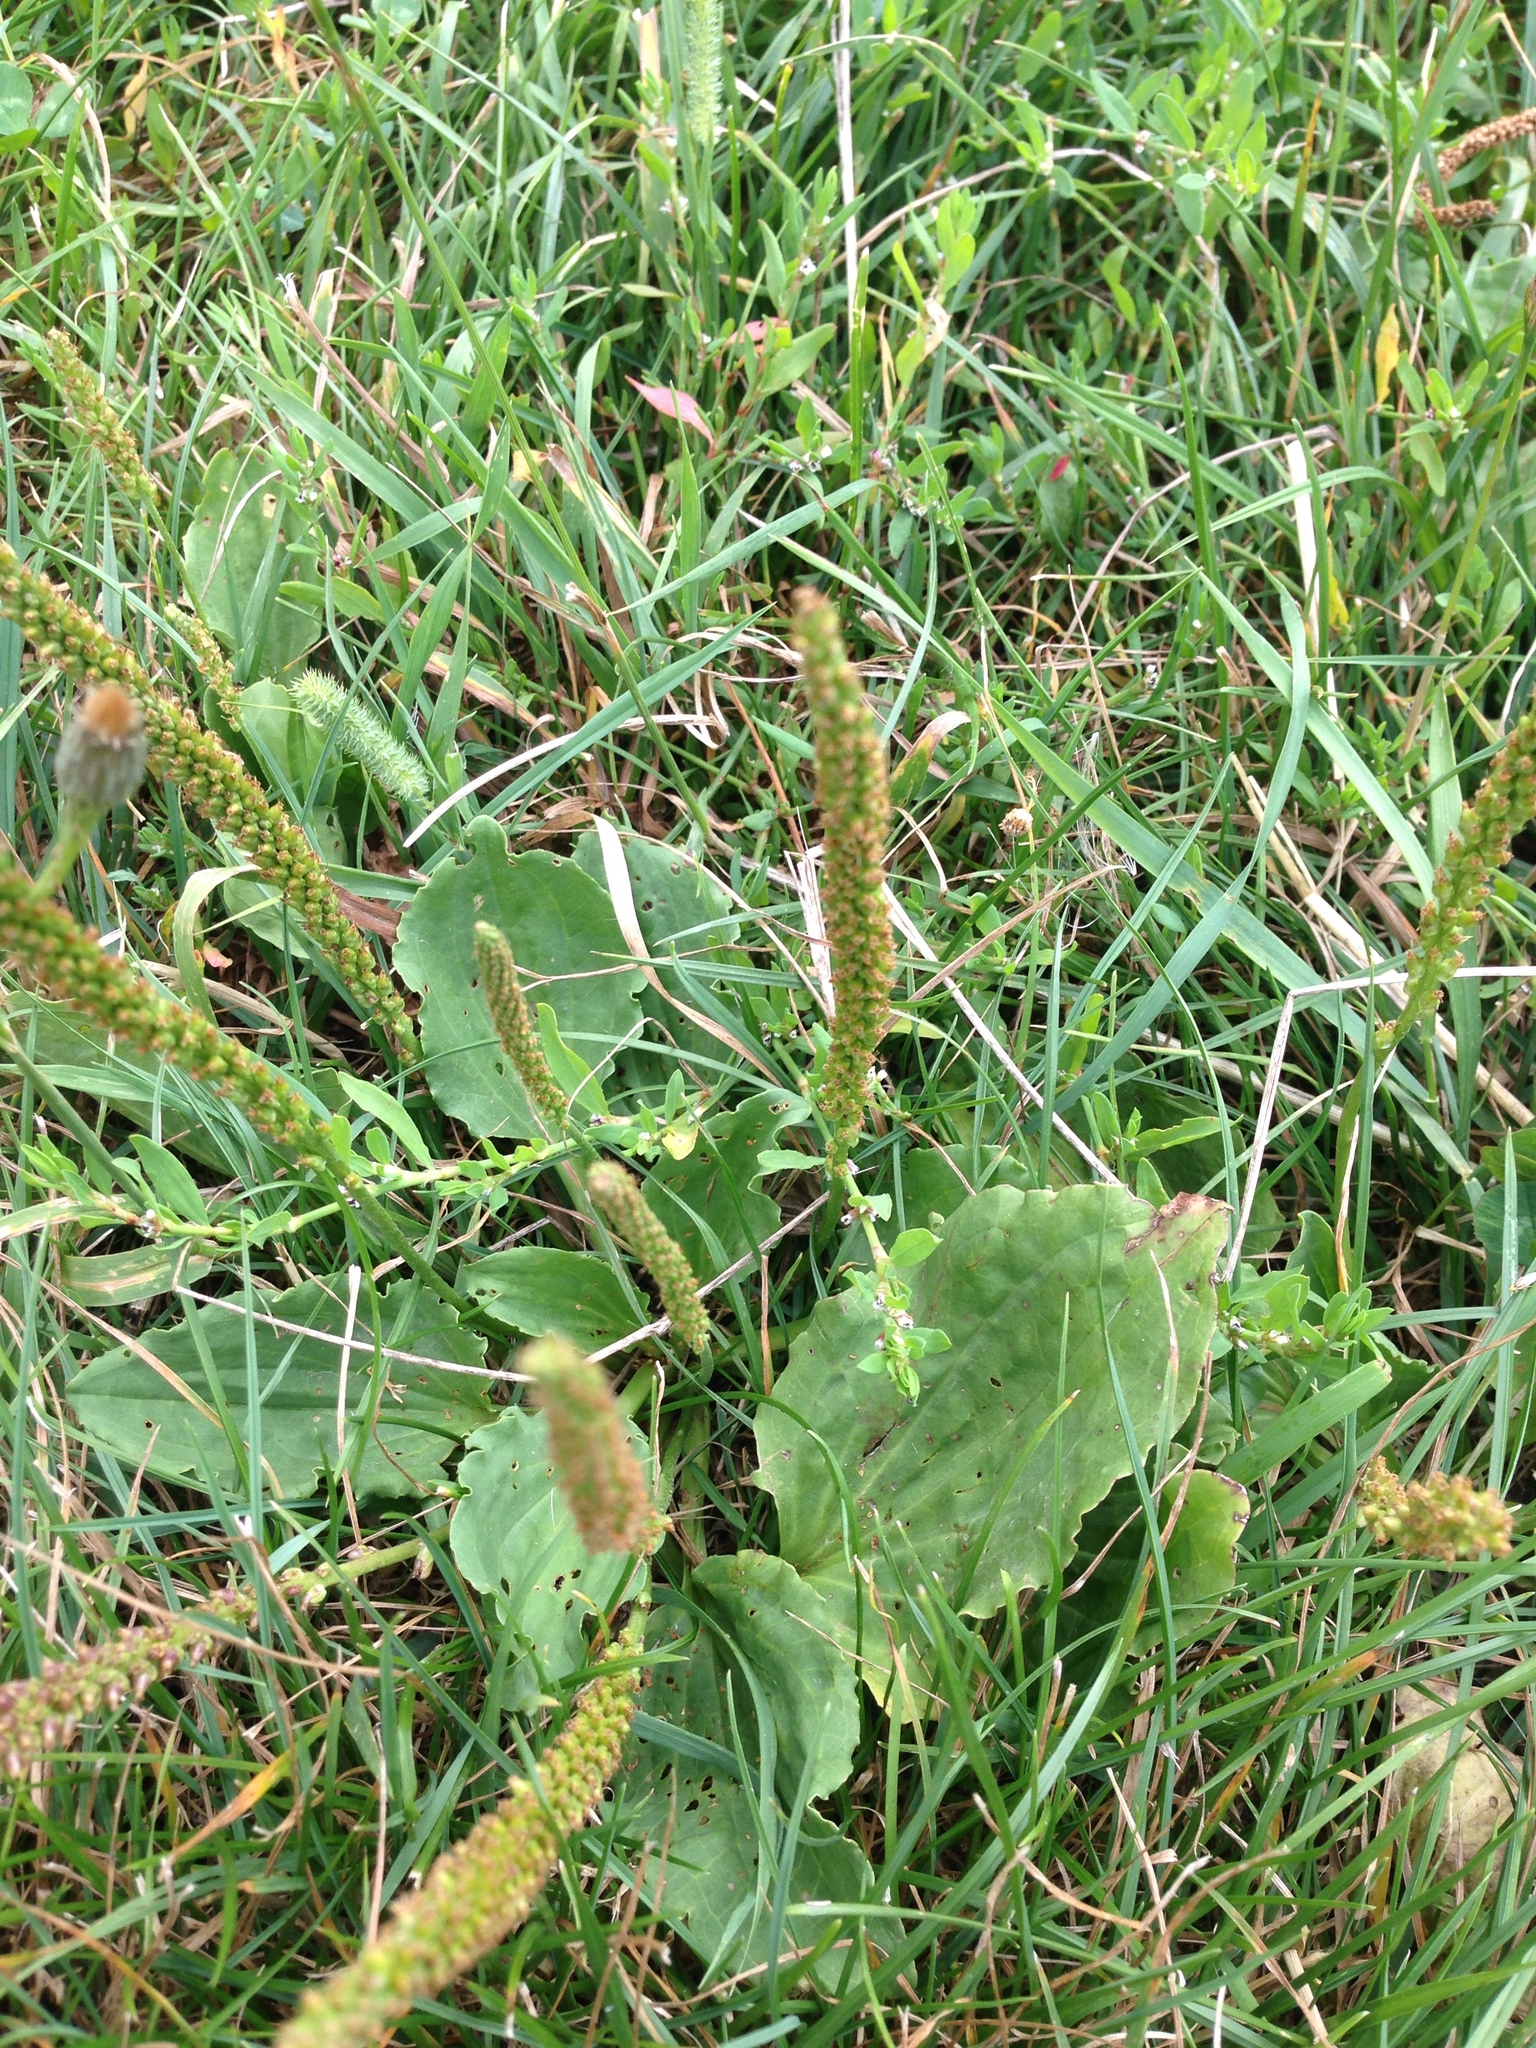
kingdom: Plantae
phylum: Tracheophyta
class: Magnoliopsida
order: Lamiales
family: Plantaginaceae
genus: Plantago
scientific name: Plantago major
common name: Common plantain
